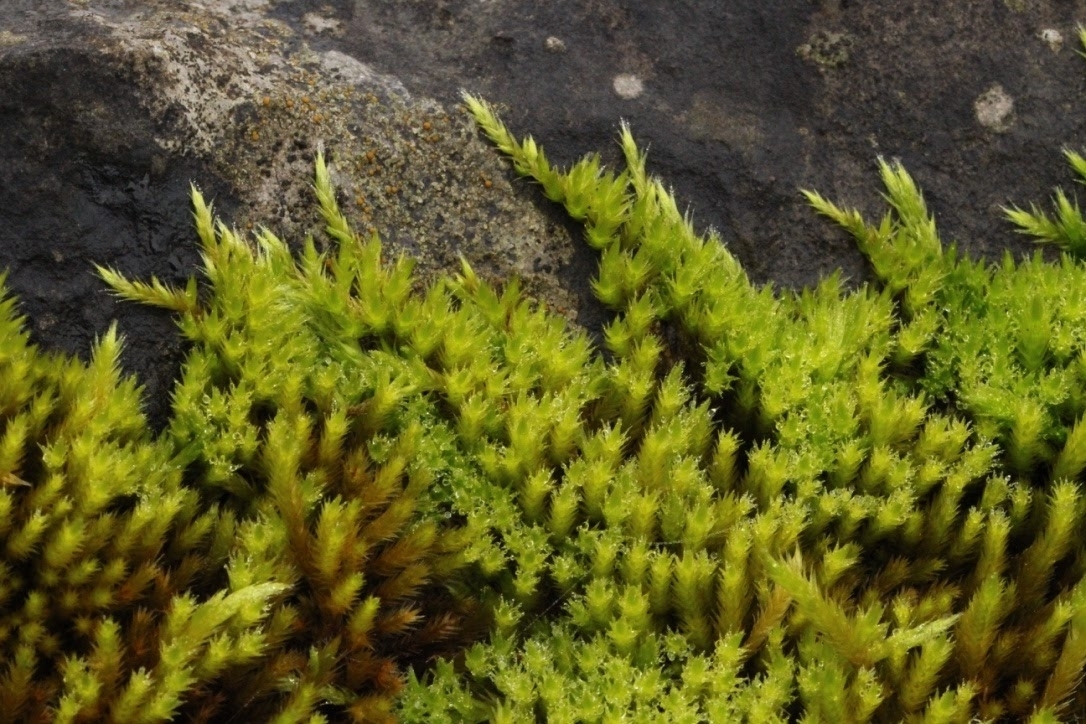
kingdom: Plantae
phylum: Bryophyta
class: Bryopsida
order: Hypnales
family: Brachytheciaceae
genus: Homalothecium
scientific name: Homalothecium lutescens
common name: Yellow feather-moss
